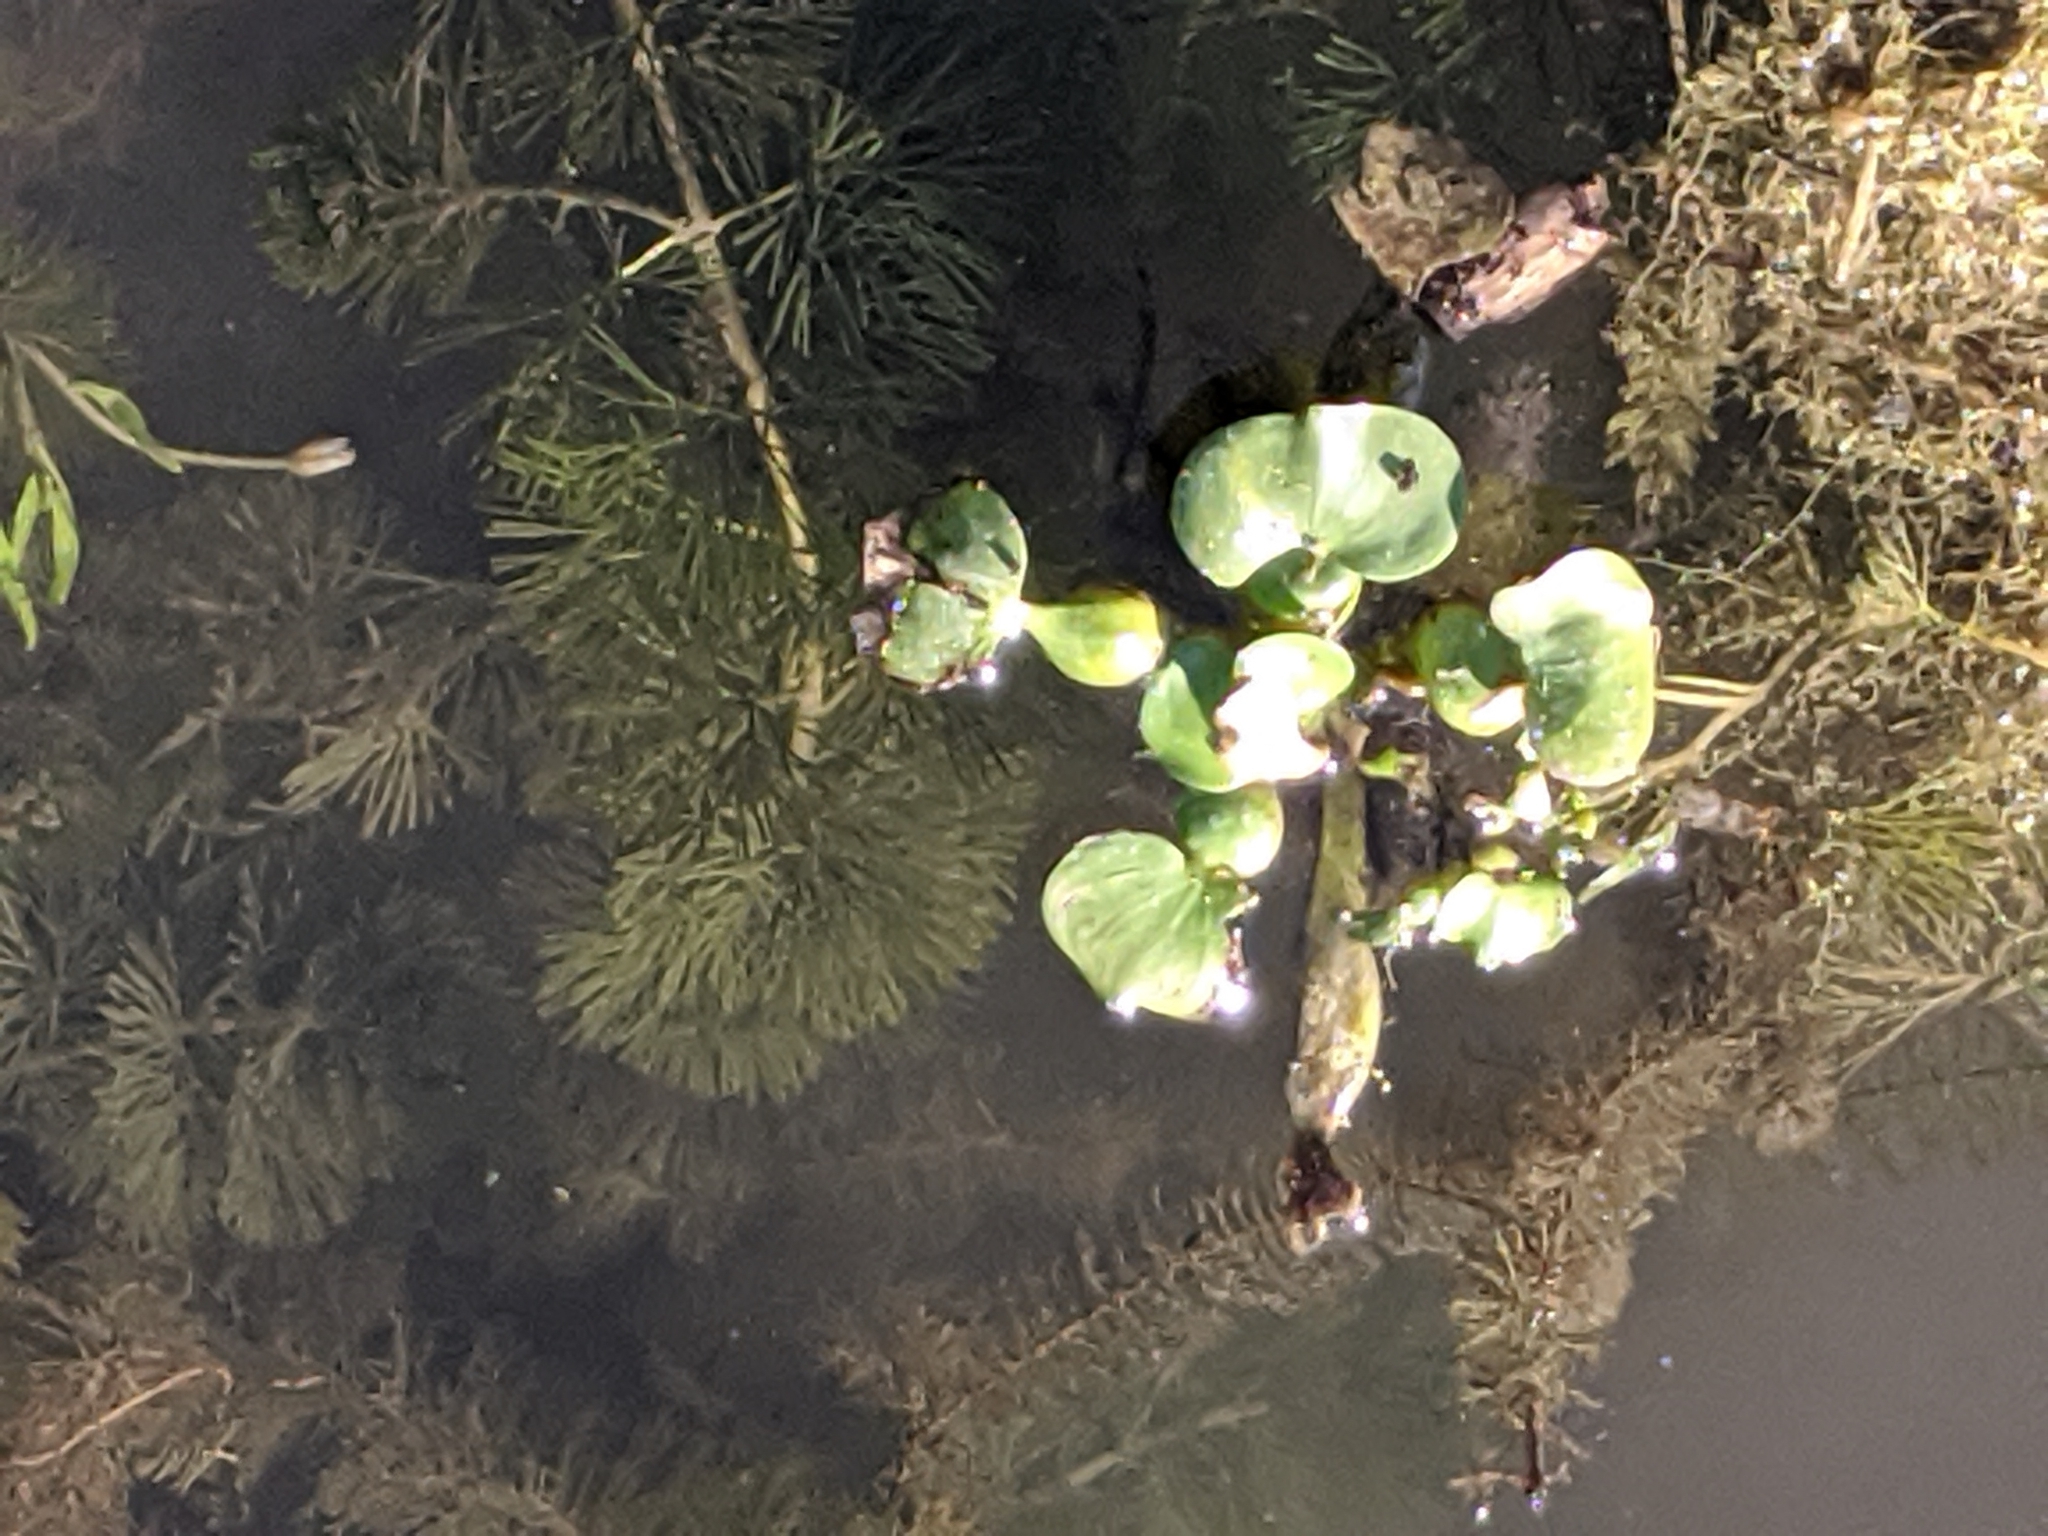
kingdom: Plantae
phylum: Tracheophyta
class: Liliopsida
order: Commelinales
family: Pontederiaceae
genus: Pontederia
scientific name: Pontederia crassipes
